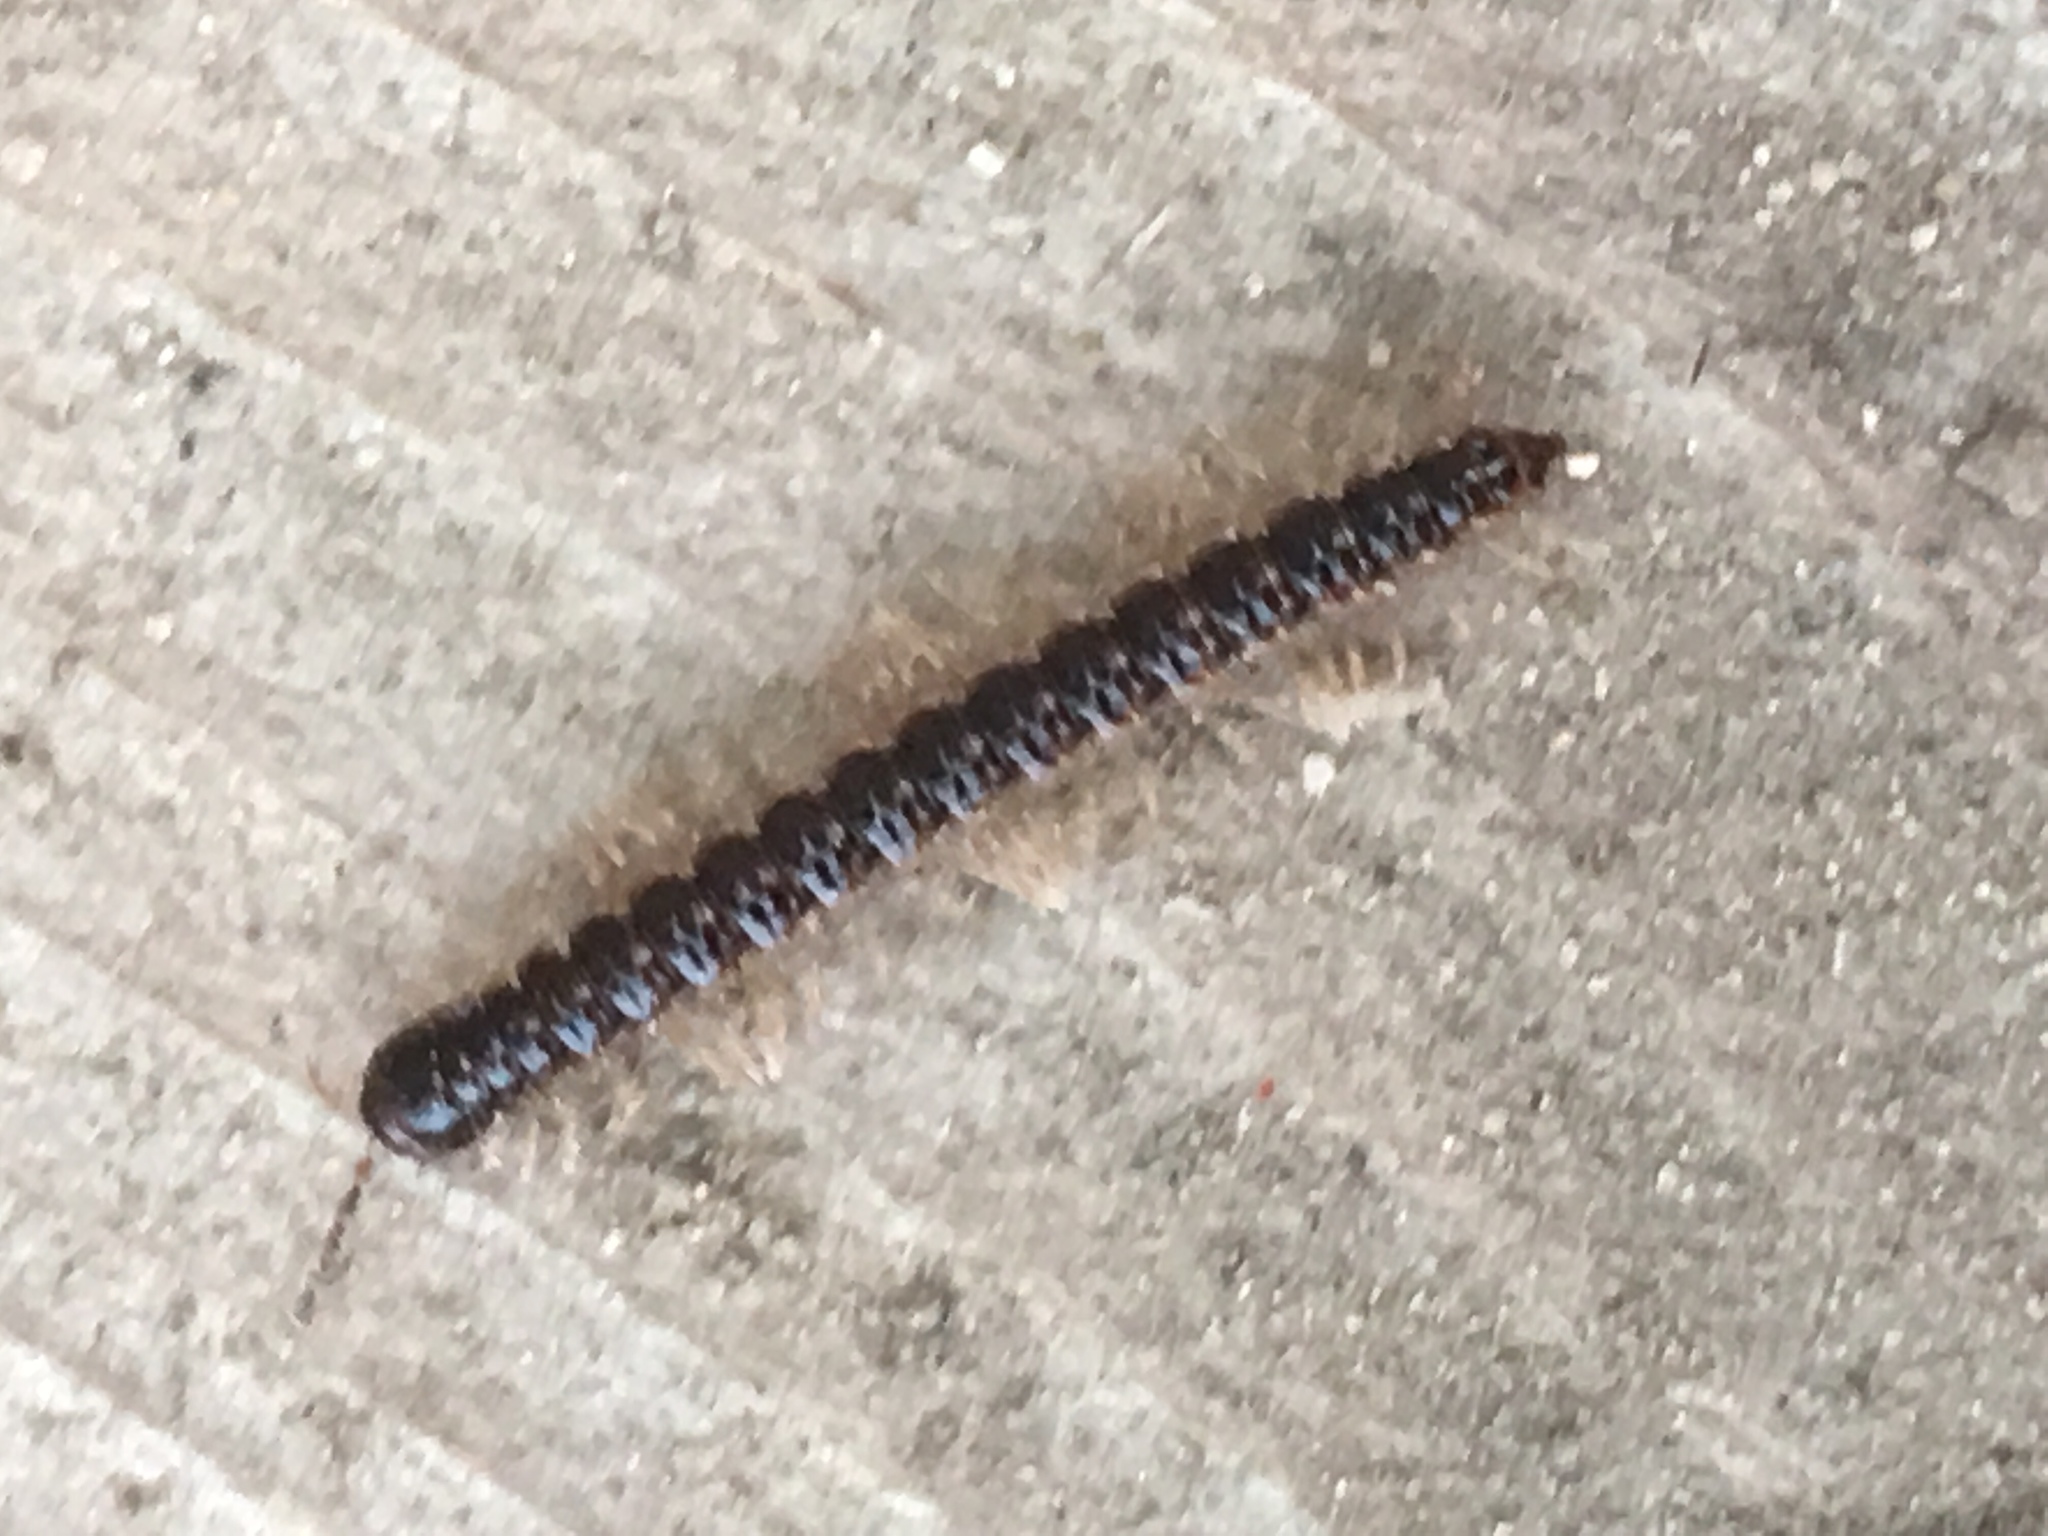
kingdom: Animalia
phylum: Arthropoda
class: Diplopoda
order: Polydesmida
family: Paradoxosomatidae
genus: Oxidus
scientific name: Oxidus gracilis
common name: Greenhouse millipede
